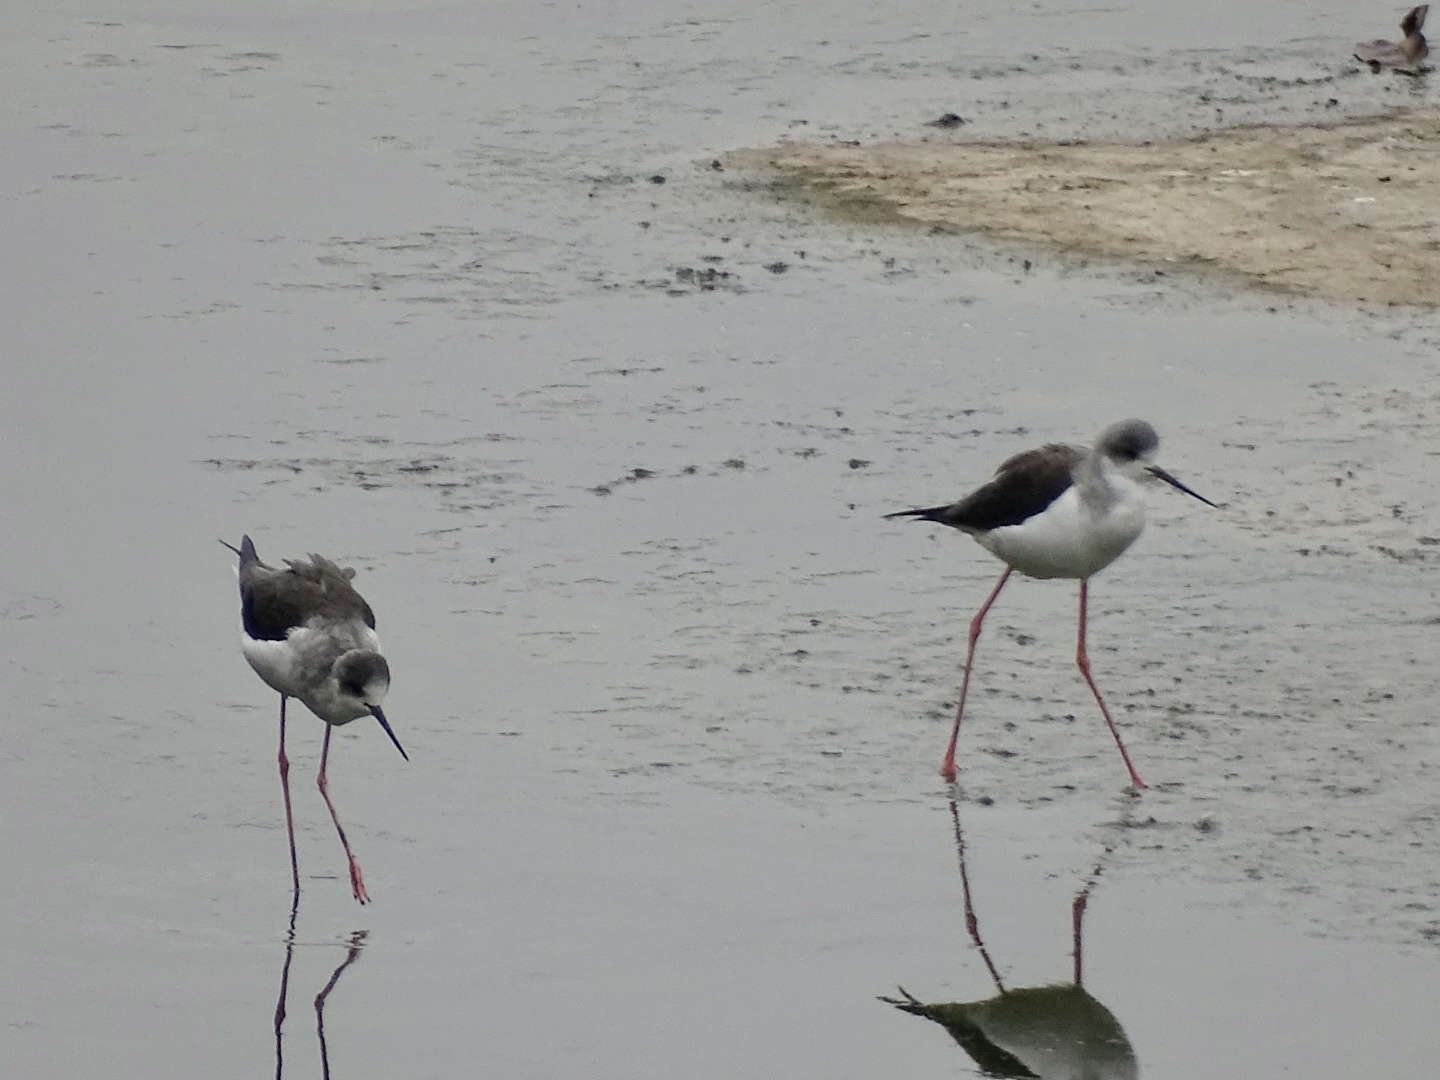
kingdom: Animalia
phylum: Chordata
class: Aves
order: Charadriiformes
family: Recurvirostridae
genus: Himantopus
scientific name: Himantopus himantopus
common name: Black-winged stilt
